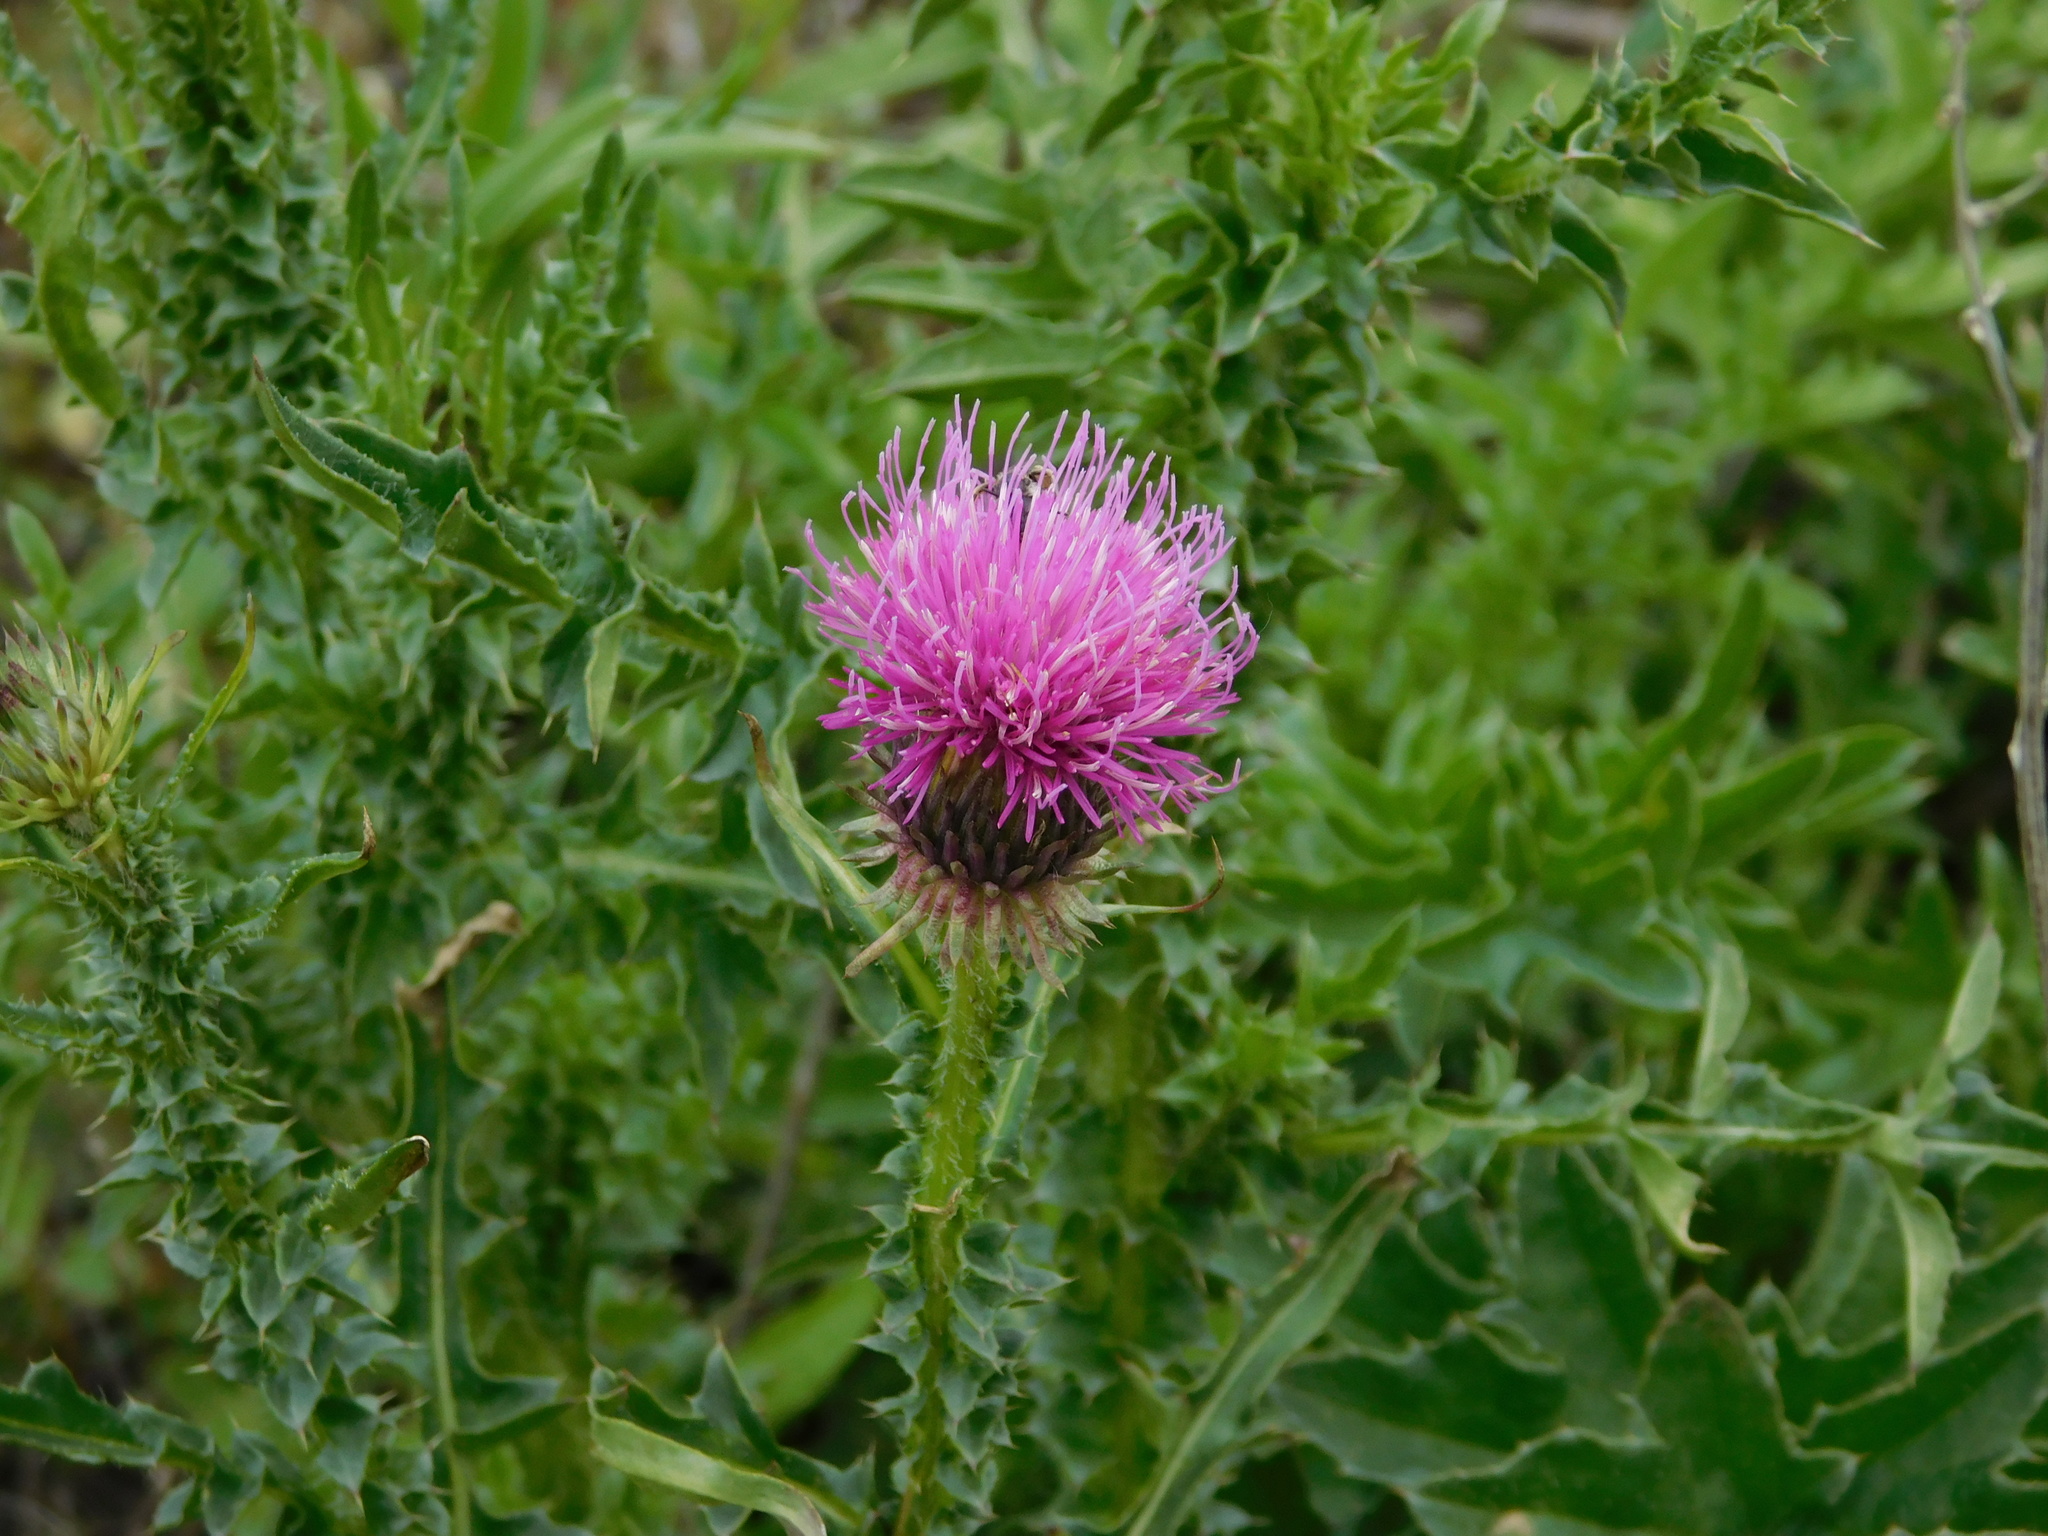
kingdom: Plantae
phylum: Tracheophyta
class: Magnoliopsida
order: Asterales
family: Asteraceae
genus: Carduus
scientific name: Carduus acanthoides
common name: Plumeless thistle
